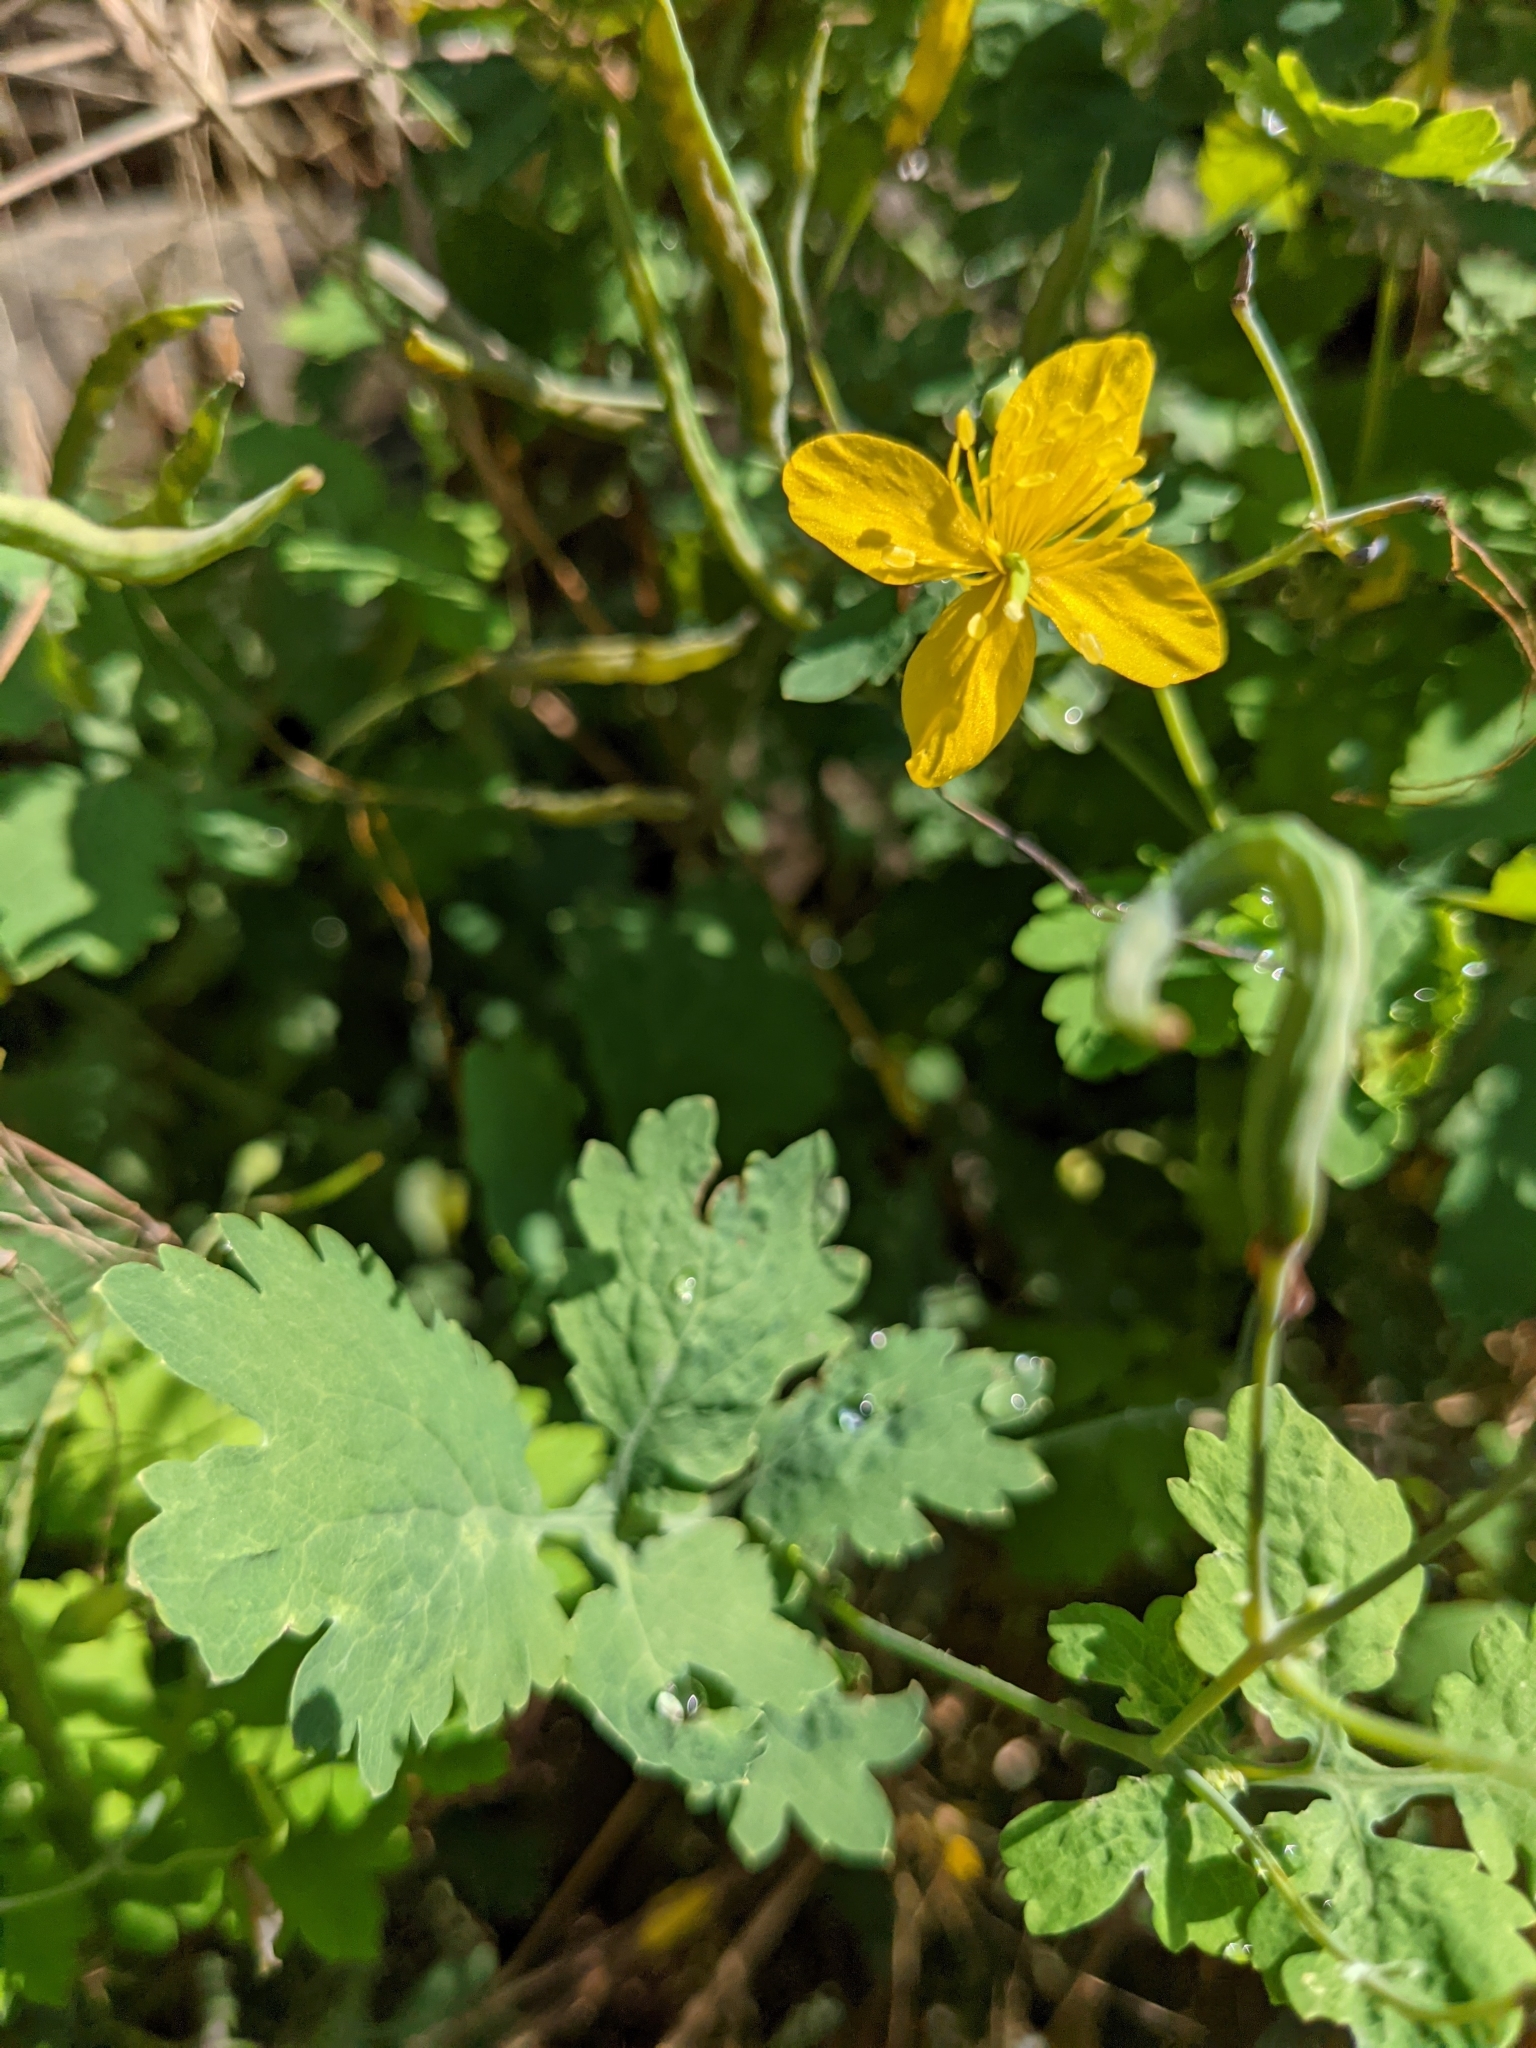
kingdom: Plantae
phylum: Tracheophyta
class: Magnoliopsida
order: Ranunculales
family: Papaveraceae
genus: Chelidonium
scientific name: Chelidonium majus
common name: Greater celandine
